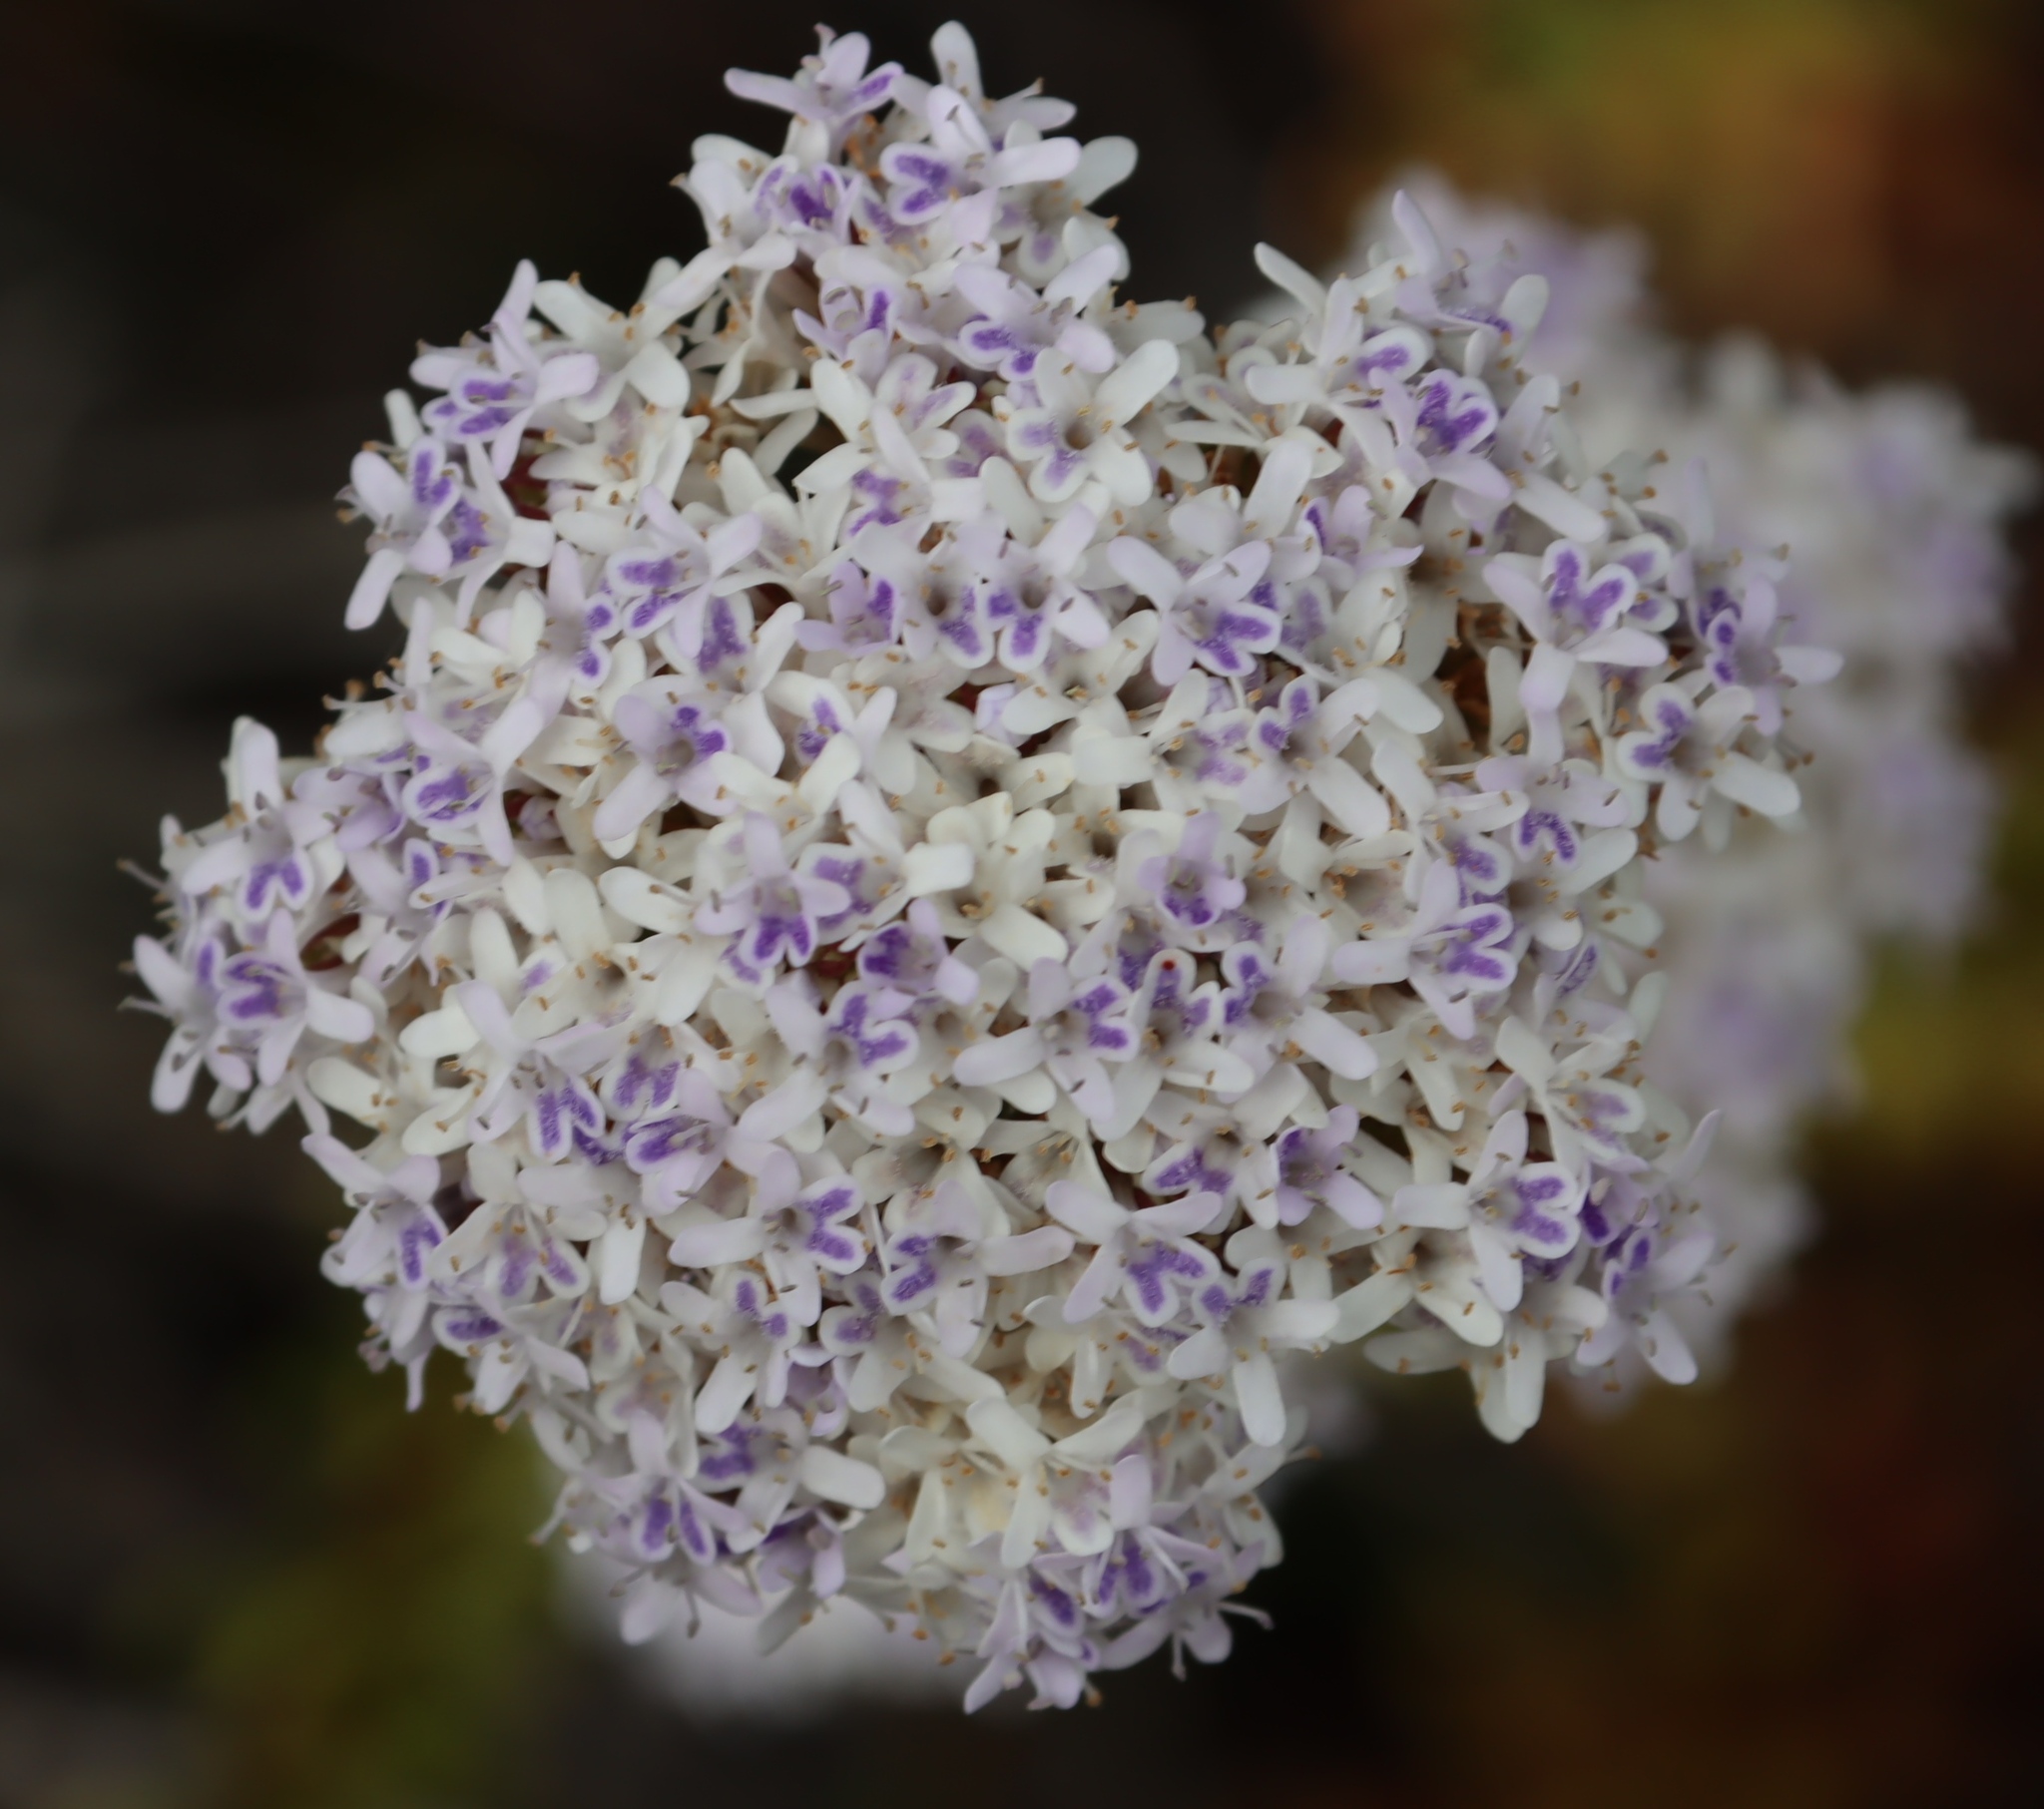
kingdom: Plantae
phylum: Tracheophyta
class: Magnoliopsida
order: Lamiales
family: Scrophulariaceae
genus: Pseudoselago
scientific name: Pseudoselago langebergensis
